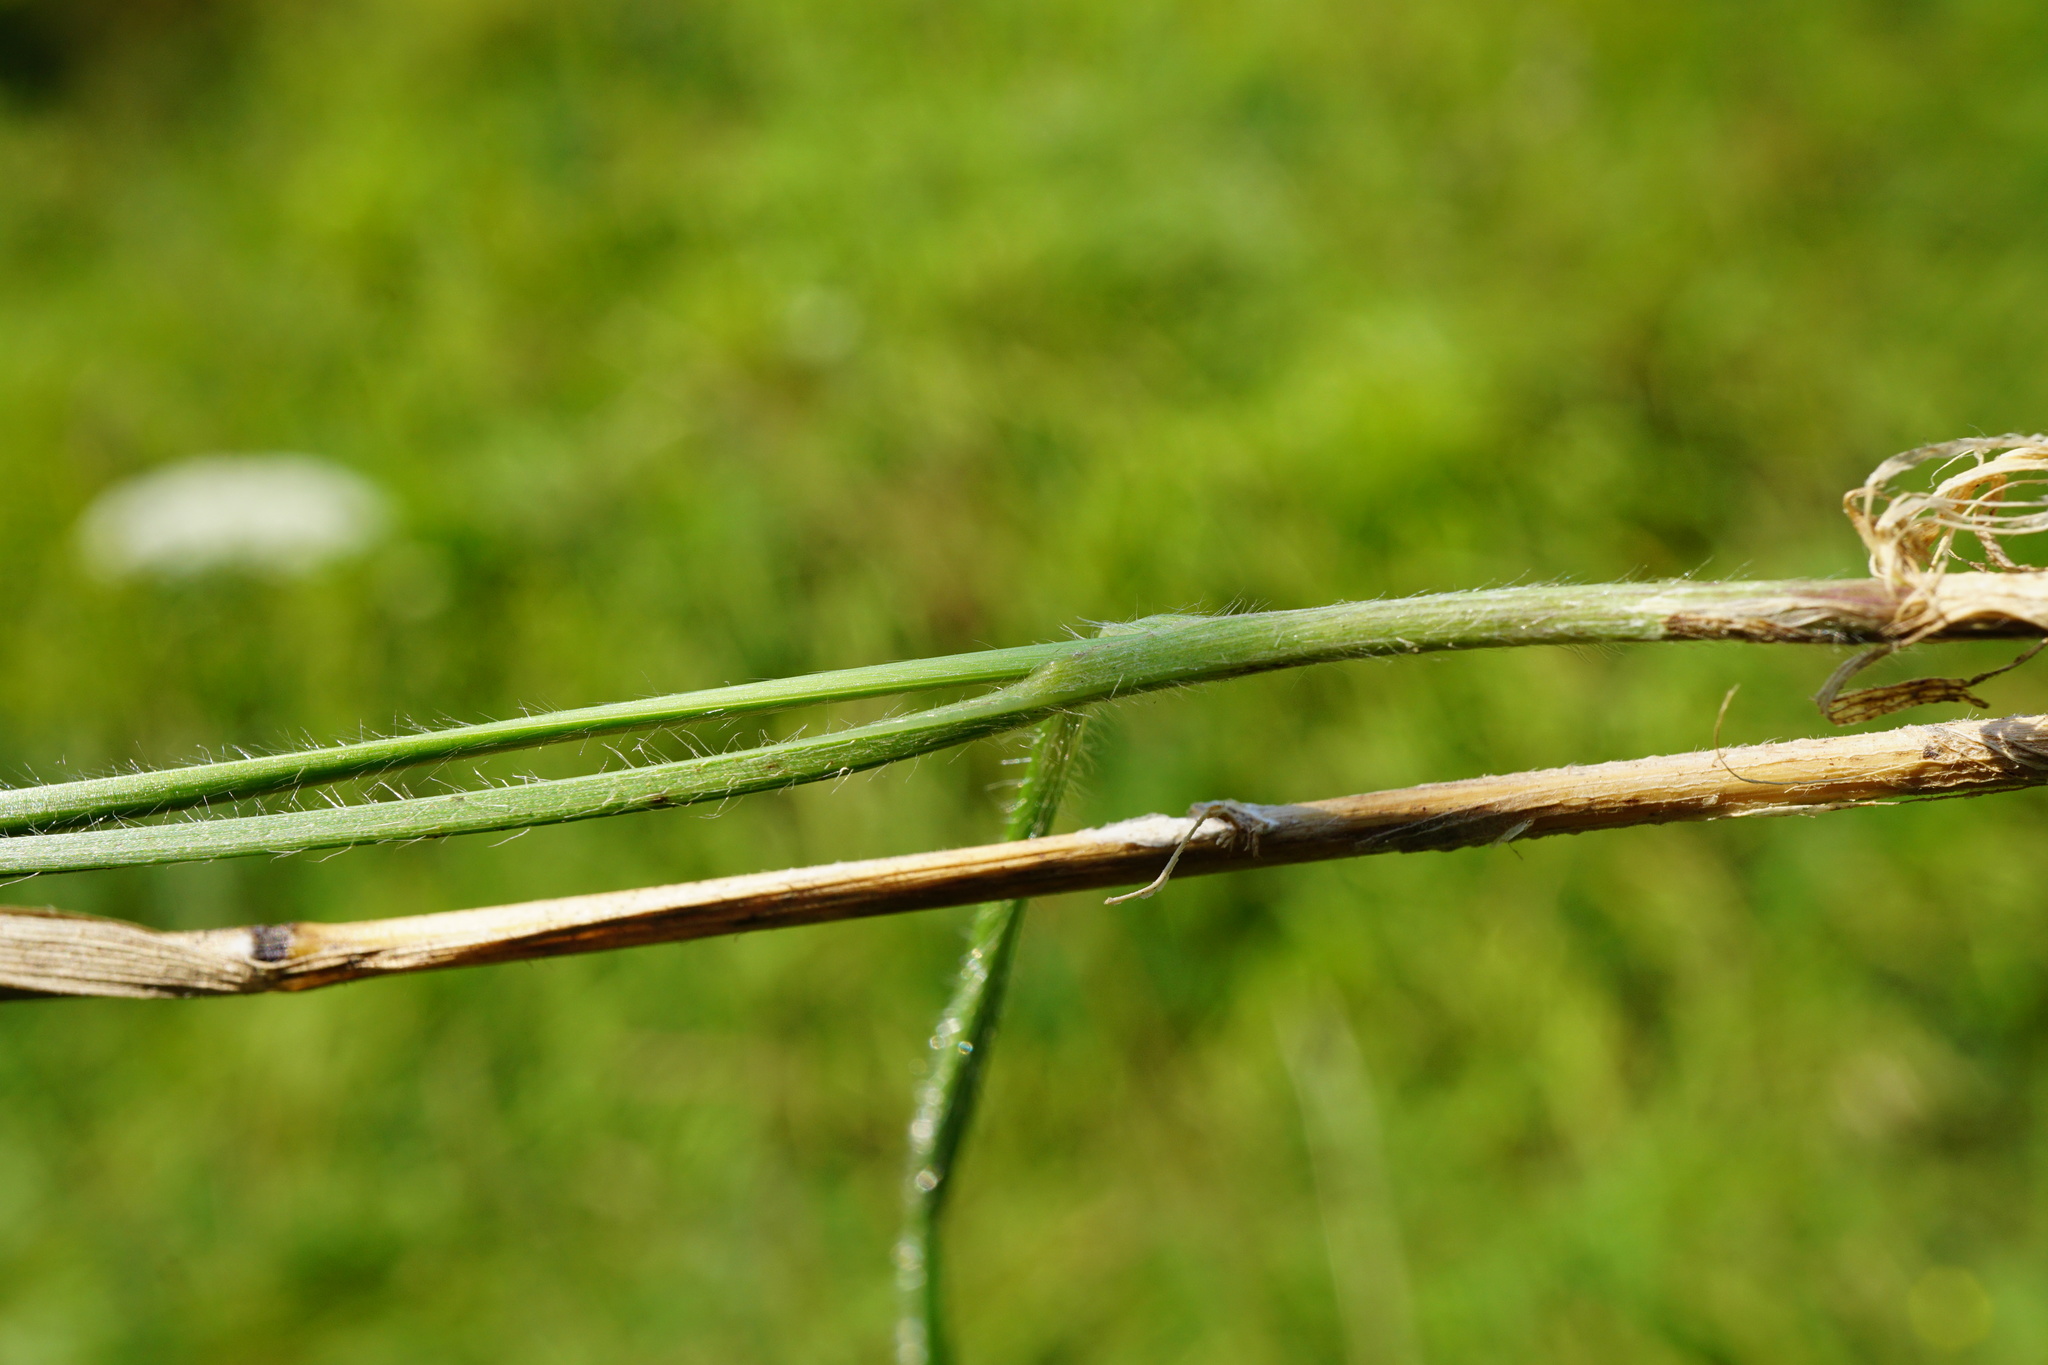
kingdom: Plantae
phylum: Tracheophyta
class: Liliopsida
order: Poales
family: Poaceae
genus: Bromus
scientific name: Bromus erectus
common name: Erect brome
